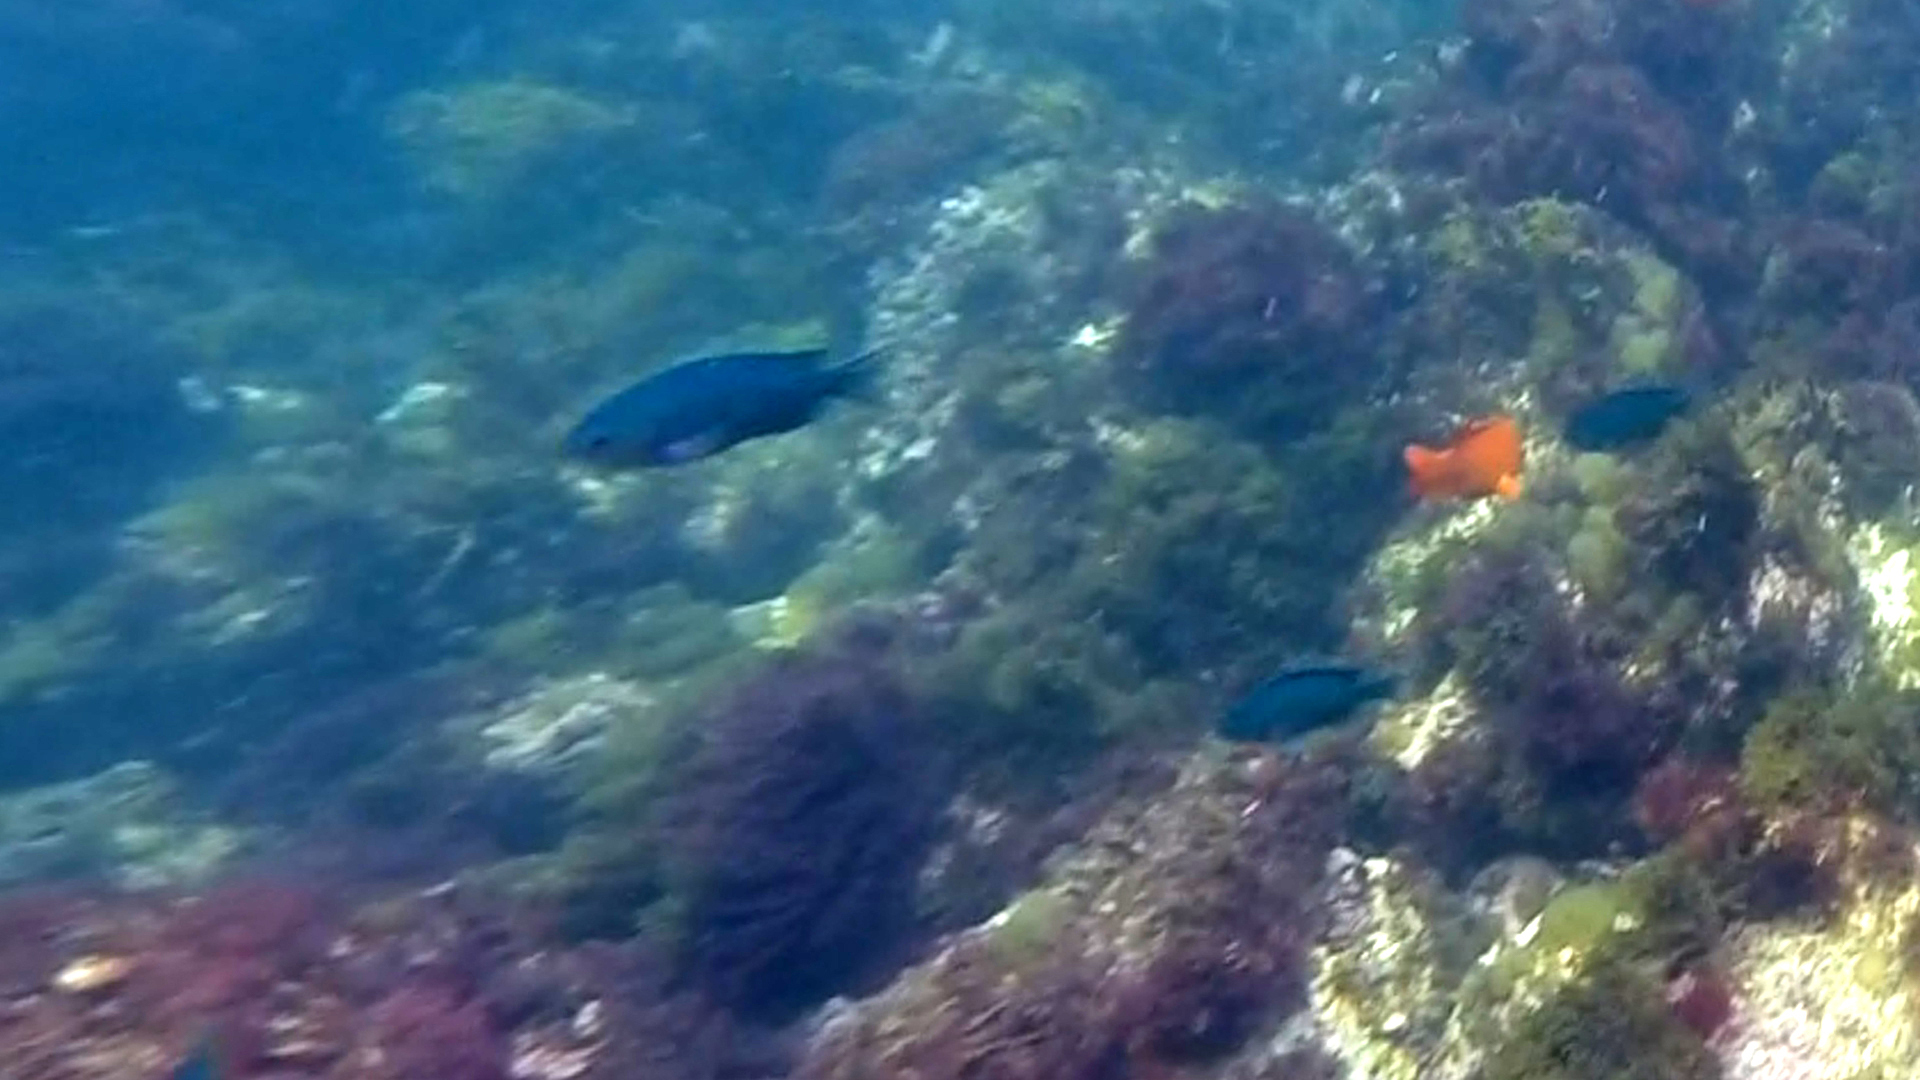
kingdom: Animalia
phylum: Chordata
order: Perciformes
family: Pomacentridae
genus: Chromis
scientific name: Chromis punctipinnis
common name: Blacksmith
